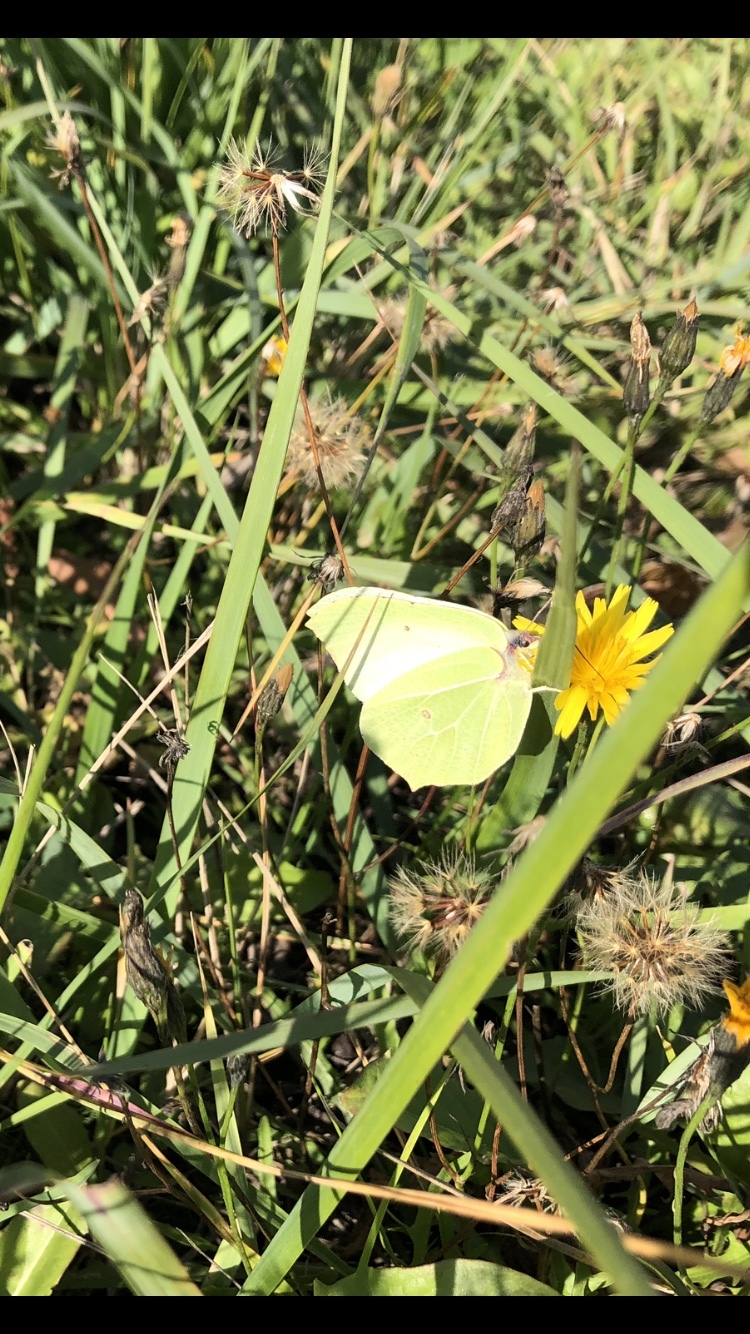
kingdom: Animalia
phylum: Arthropoda
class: Insecta
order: Lepidoptera
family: Pieridae
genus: Gonepteryx
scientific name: Gonepteryx rhamni
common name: Brimstone
